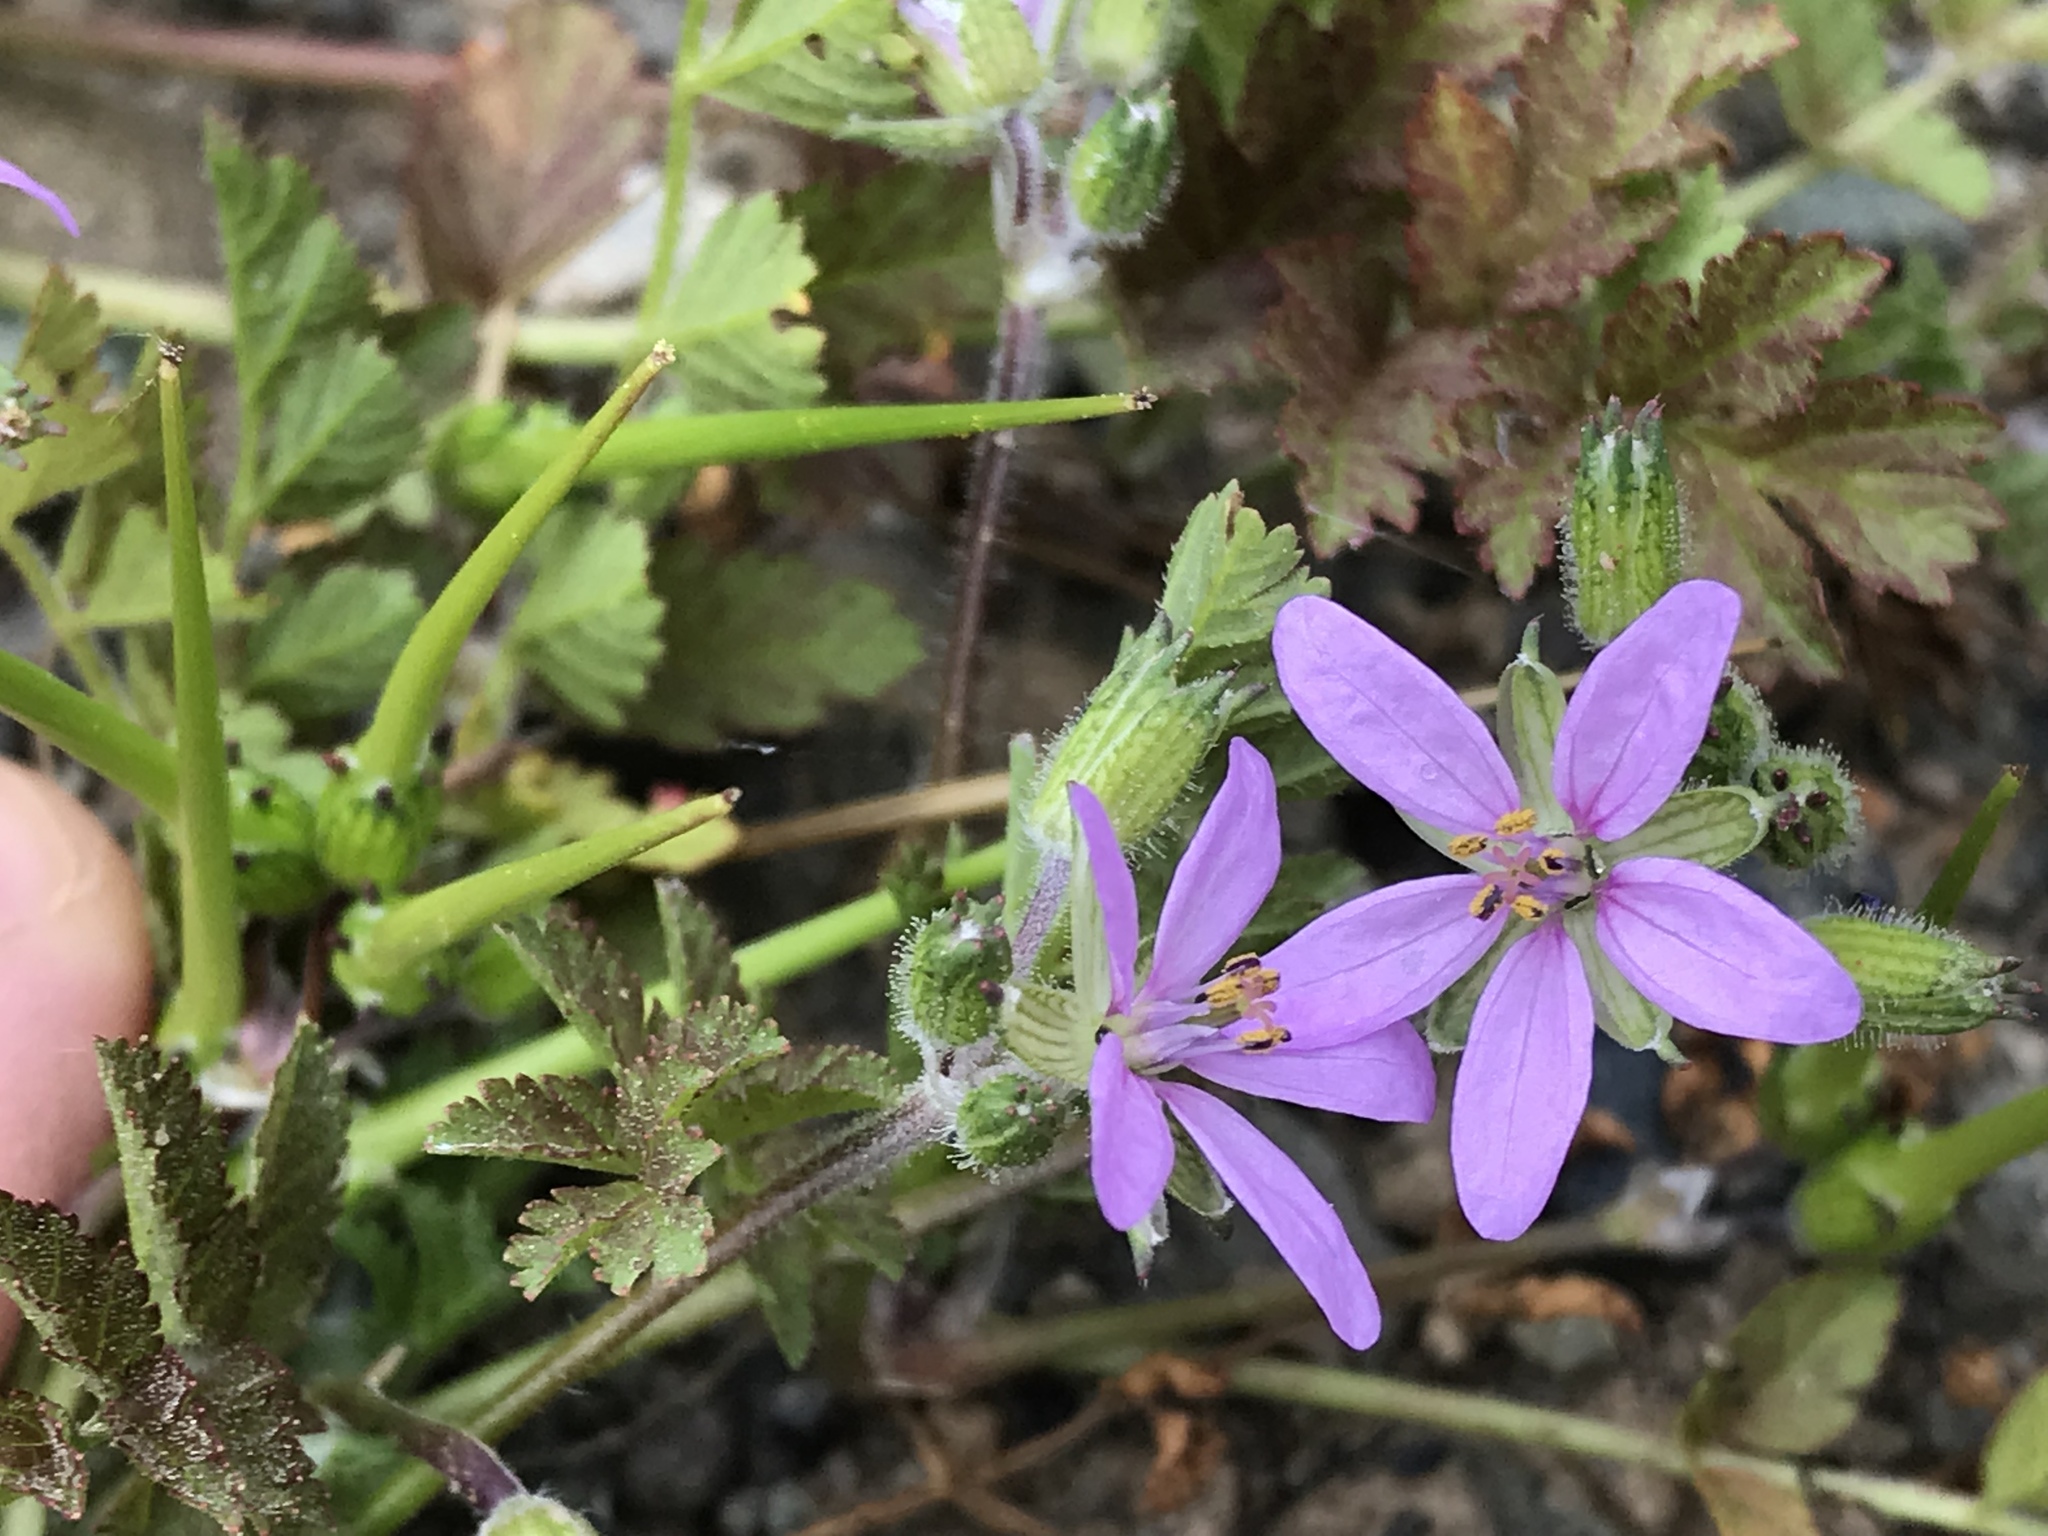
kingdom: Plantae
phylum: Tracheophyta
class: Magnoliopsida
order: Geraniales
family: Geraniaceae
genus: Erodium
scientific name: Erodium cicutarium
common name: Common stork's-bill
